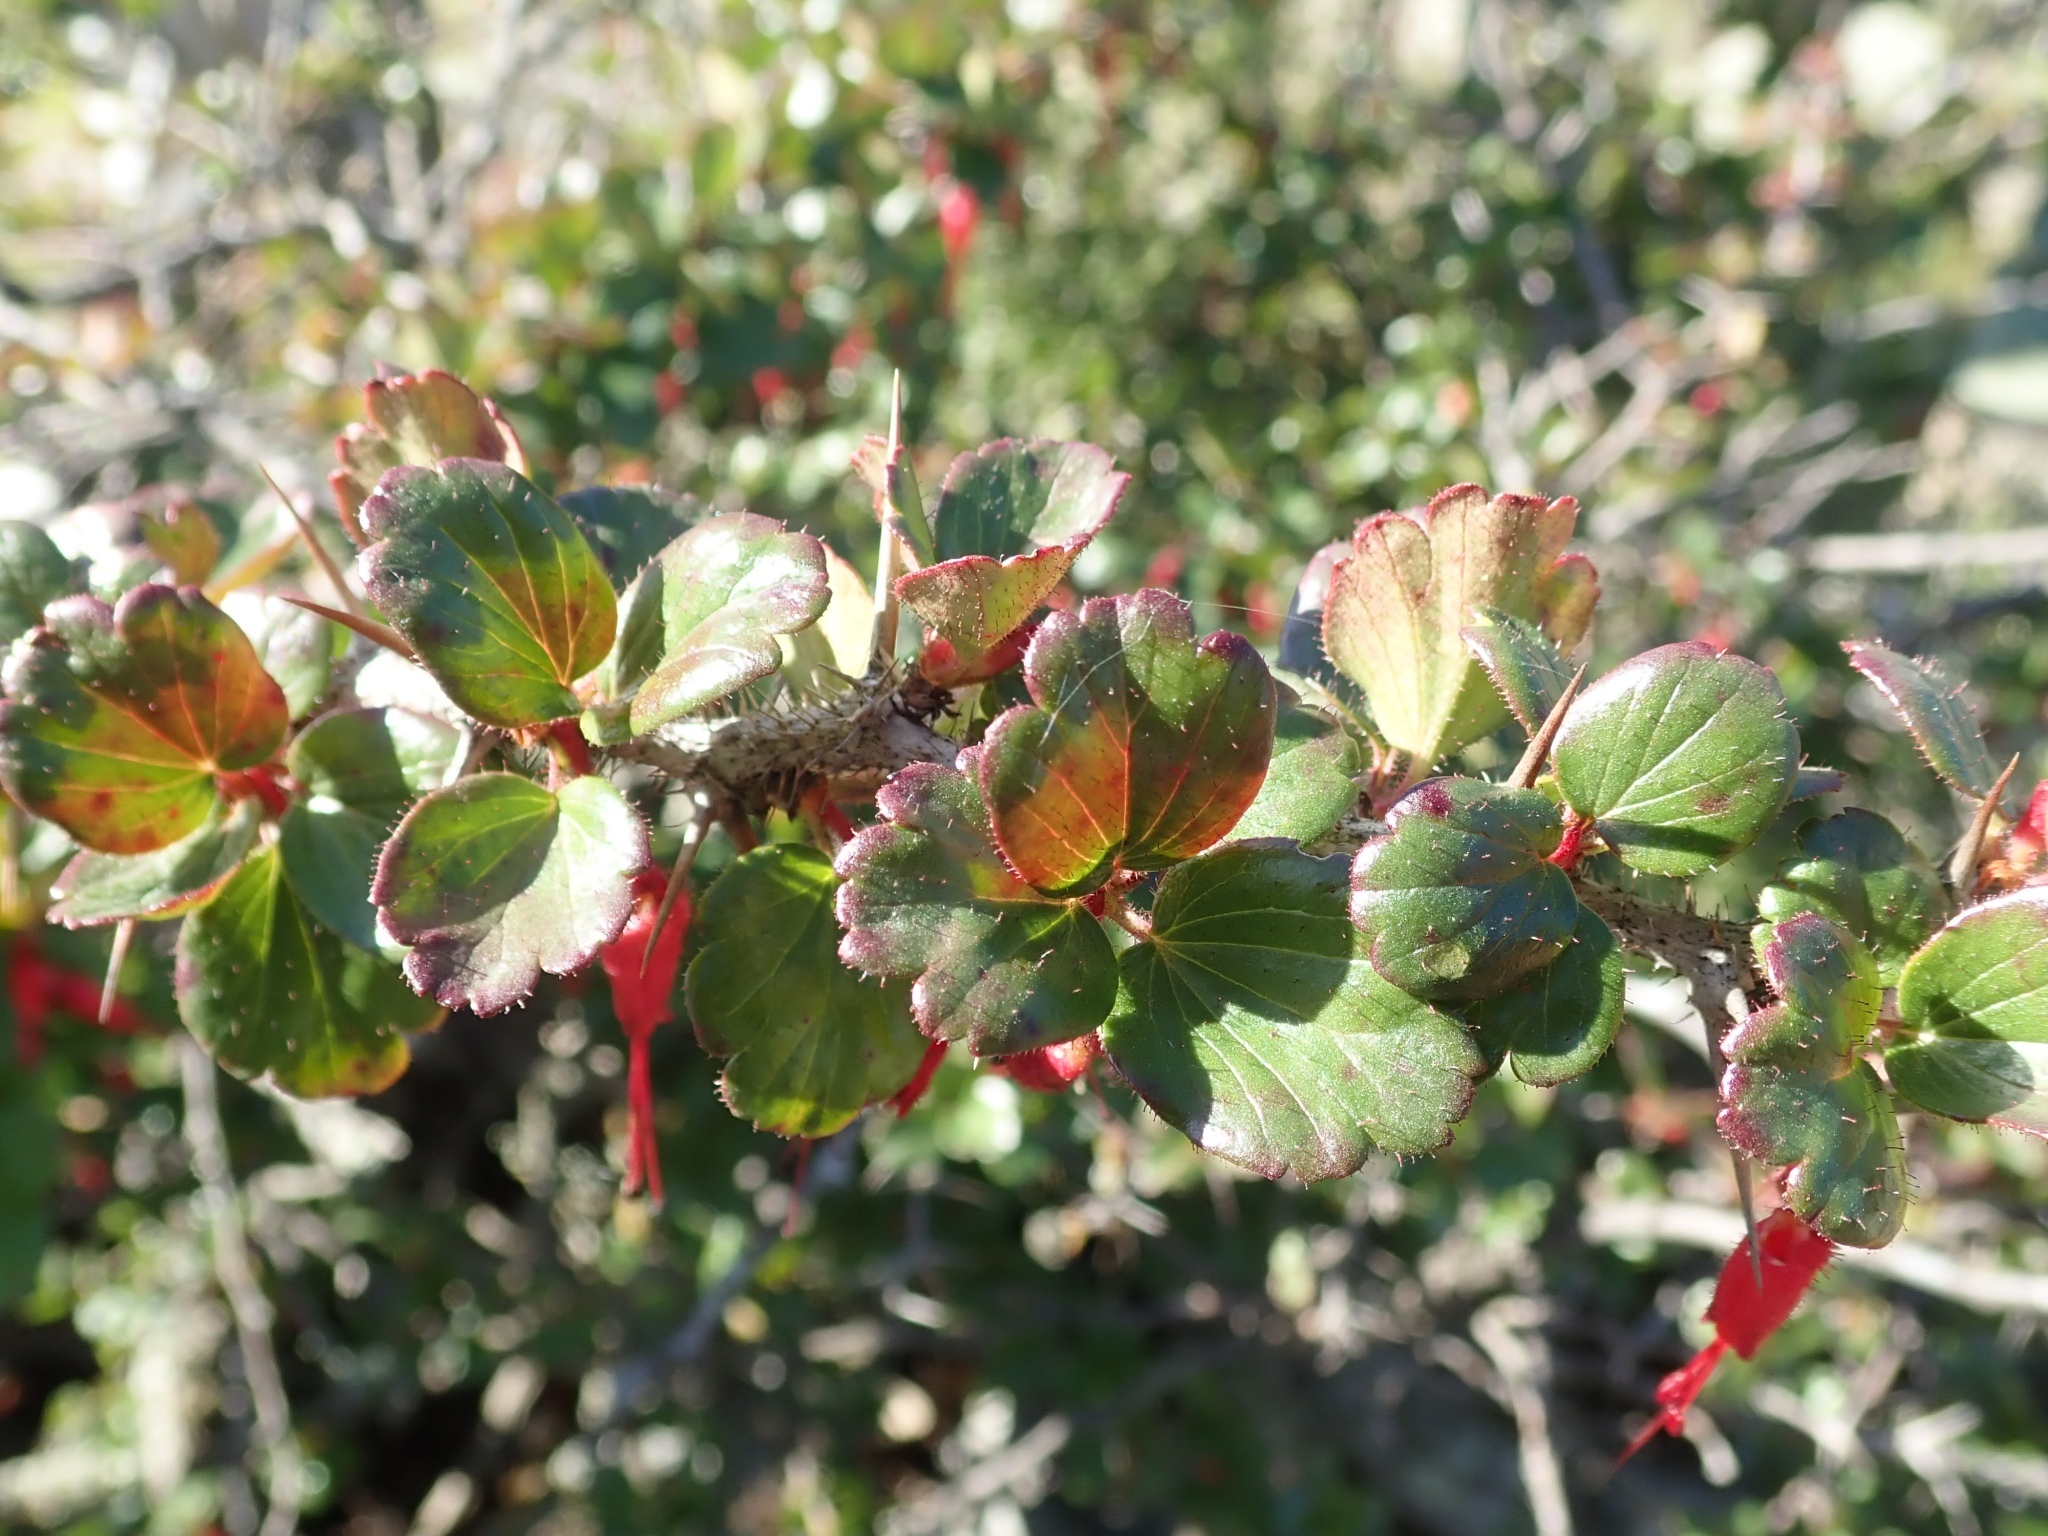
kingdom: Plantae
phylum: Tracheophyta
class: Magnoliopsida
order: Saxifragales
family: Grossulariaceae
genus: Ribes
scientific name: Ribes speciosum
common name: Fuchsia-flower gooseberry
